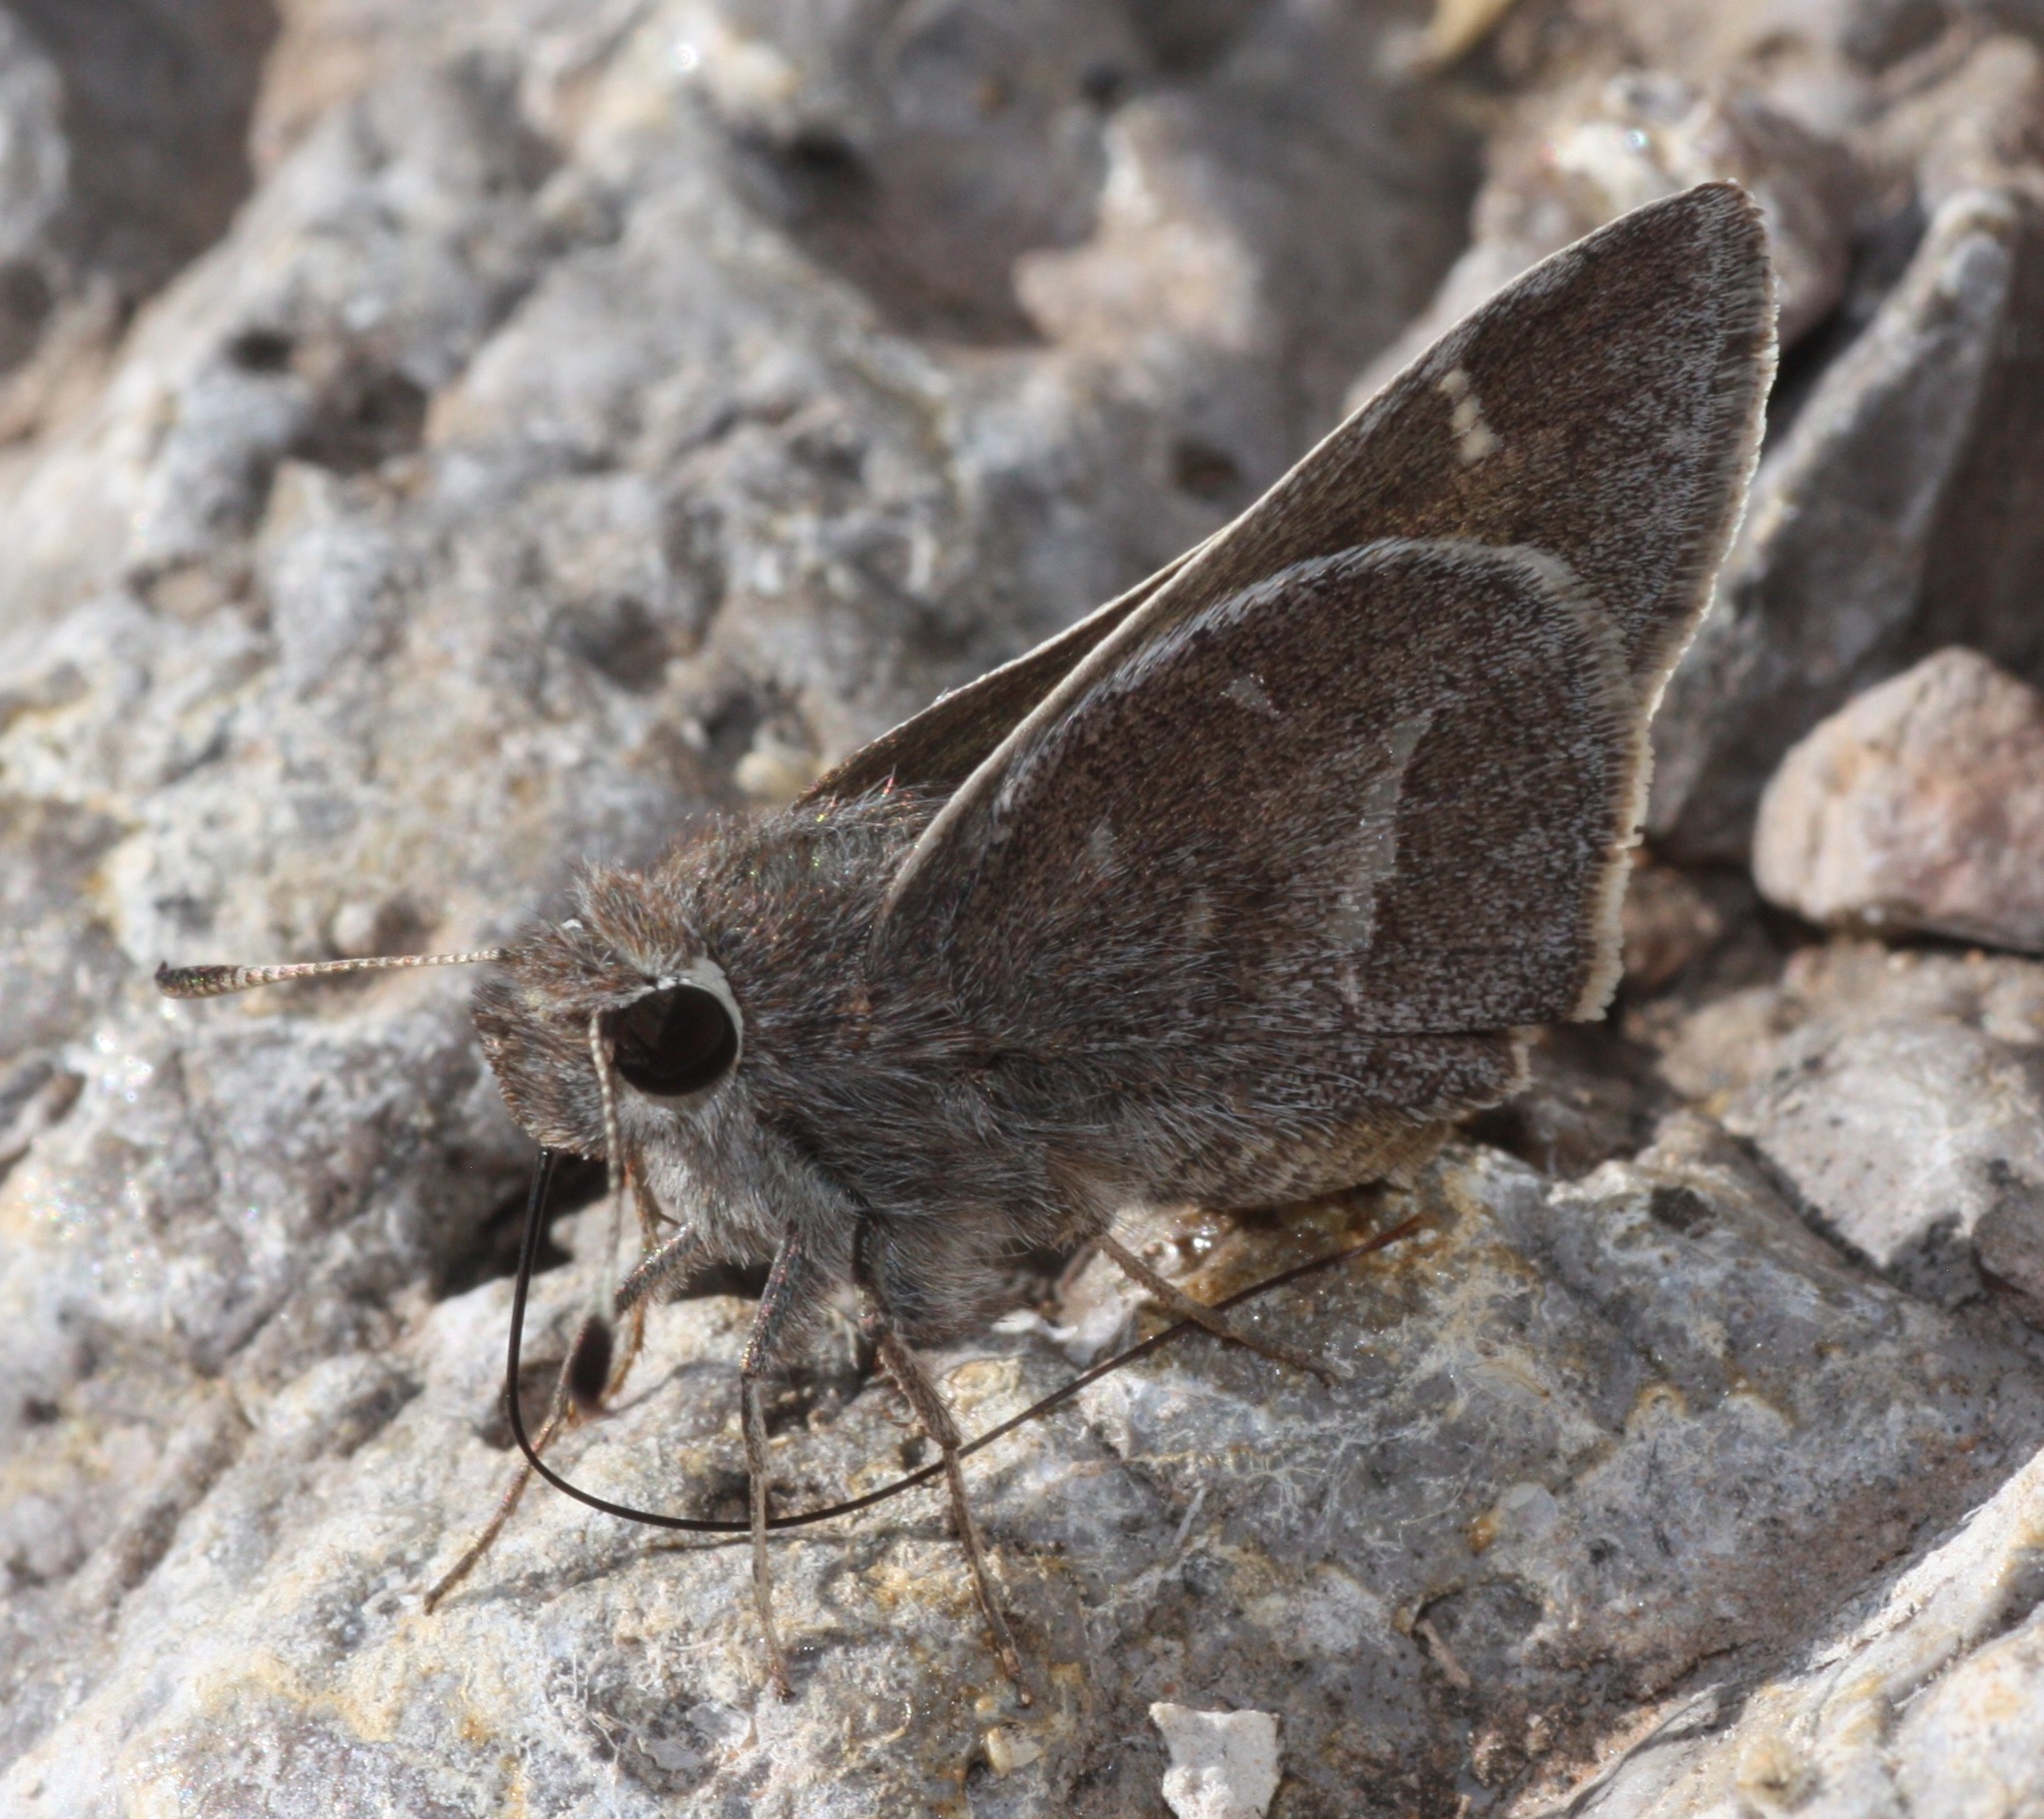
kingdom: Animalia
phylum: Arthropoda
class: Insecta
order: Lepidoptera
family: Hesperiidae
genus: Atrytonopsis
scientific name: Atrytonopsis pittacus
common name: White-barred skipper
